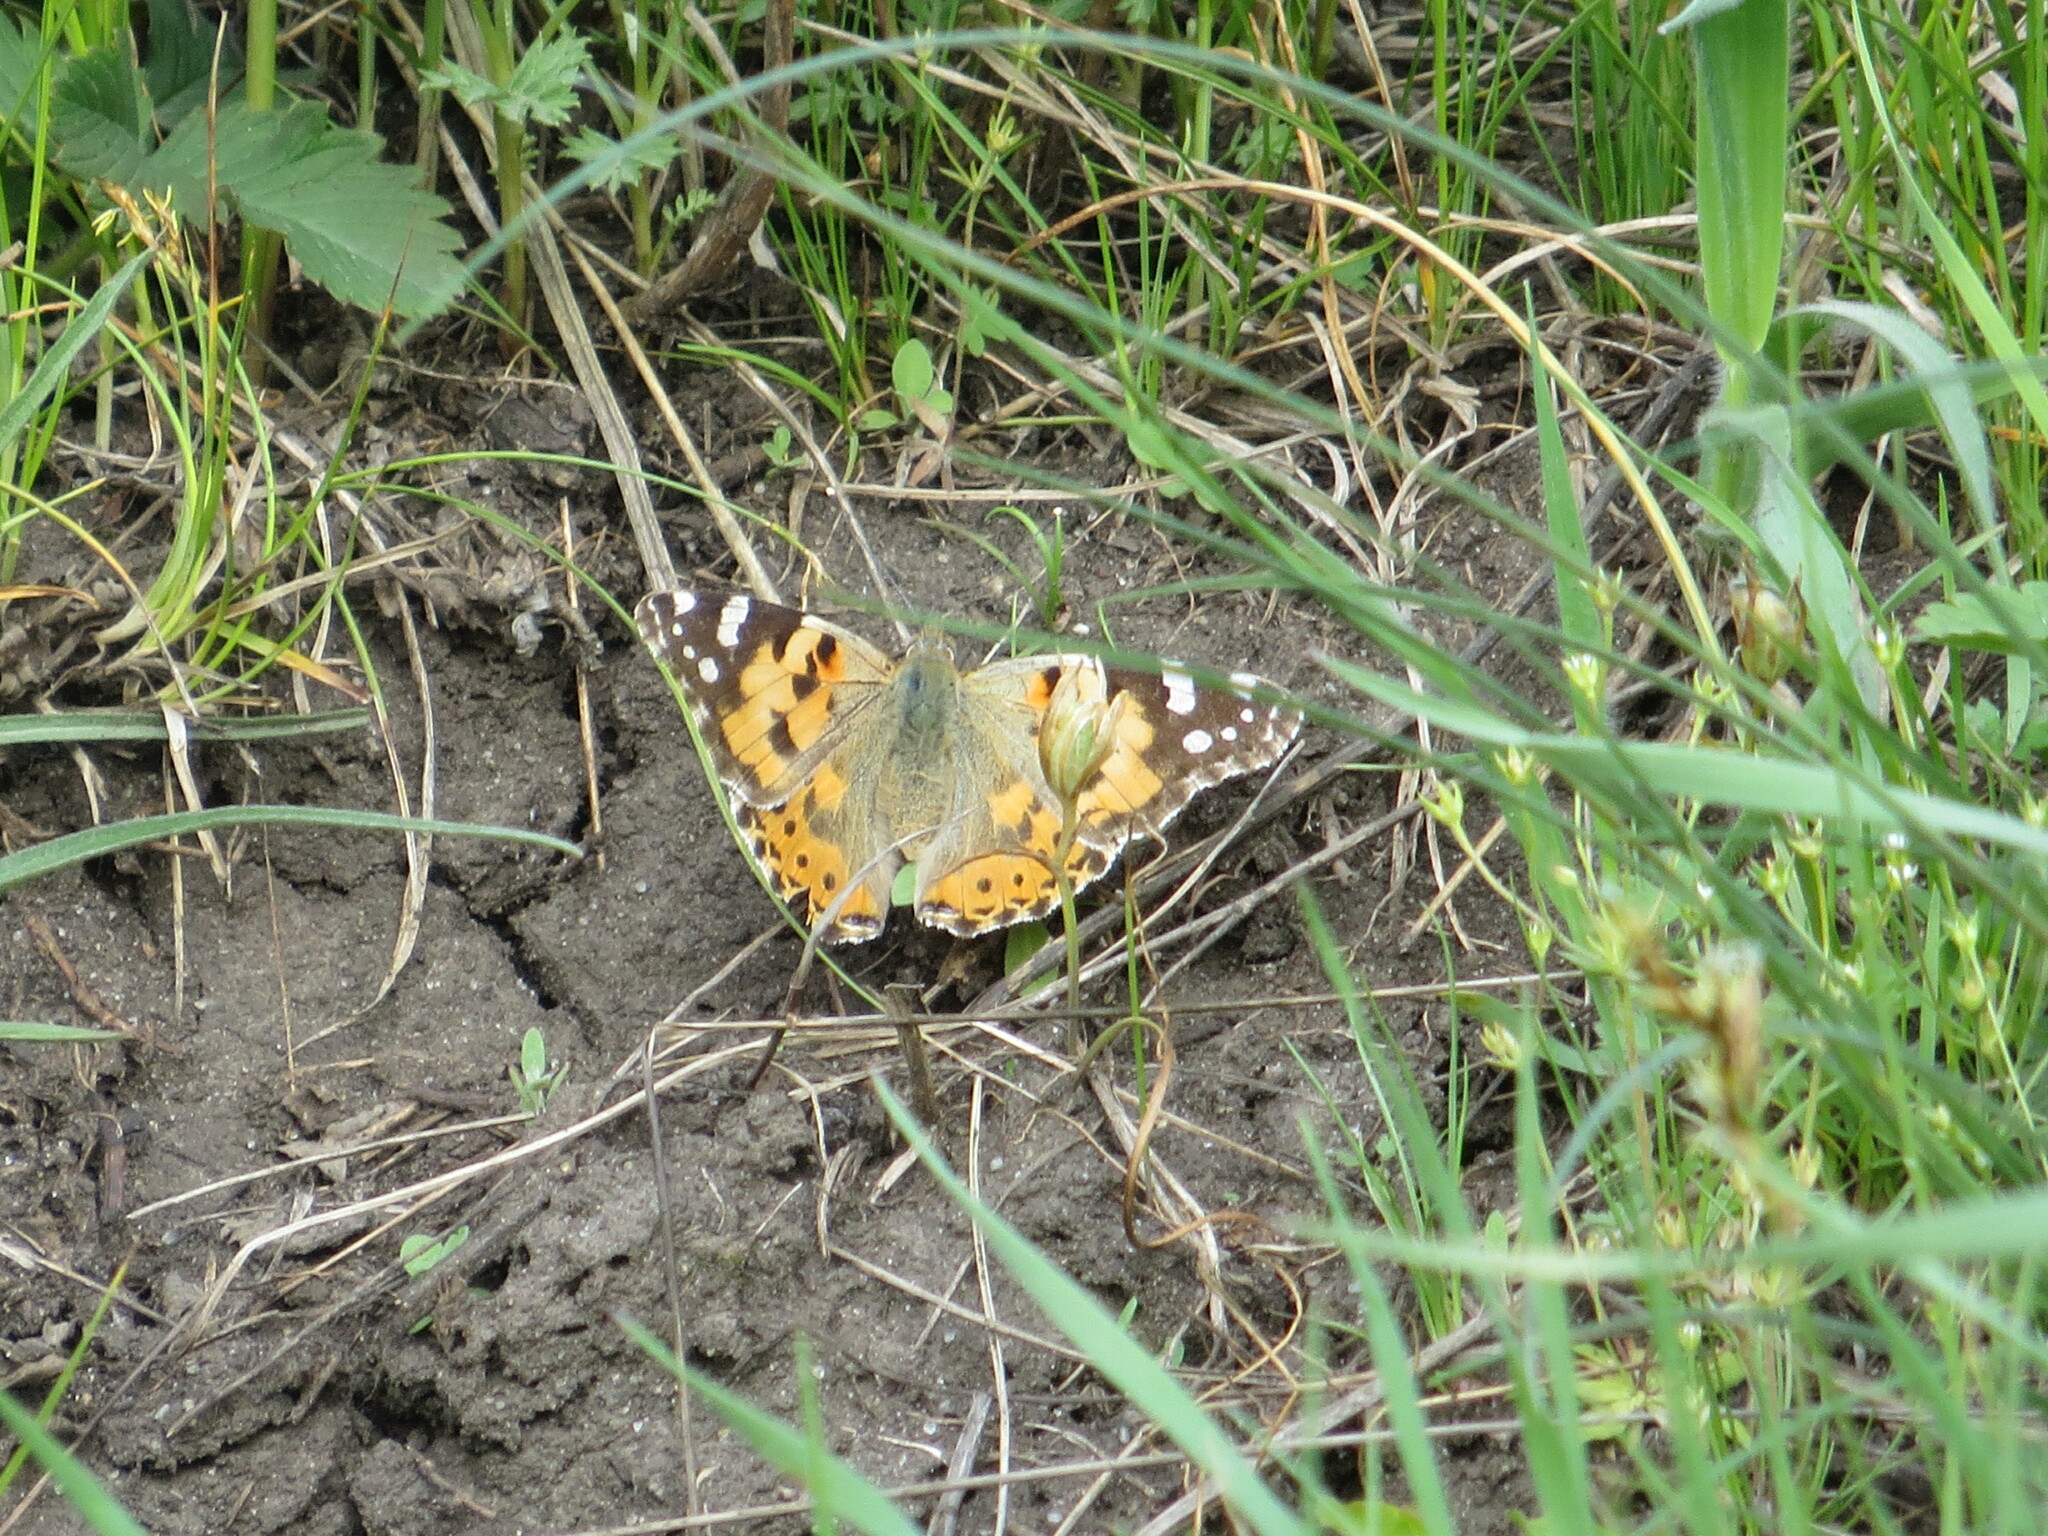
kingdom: Animalia
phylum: Arthropoda
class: Insecta
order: Lepidoptera
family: Nymphalidae
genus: Vanessa
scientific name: Vanessa cardui
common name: Painted lady
